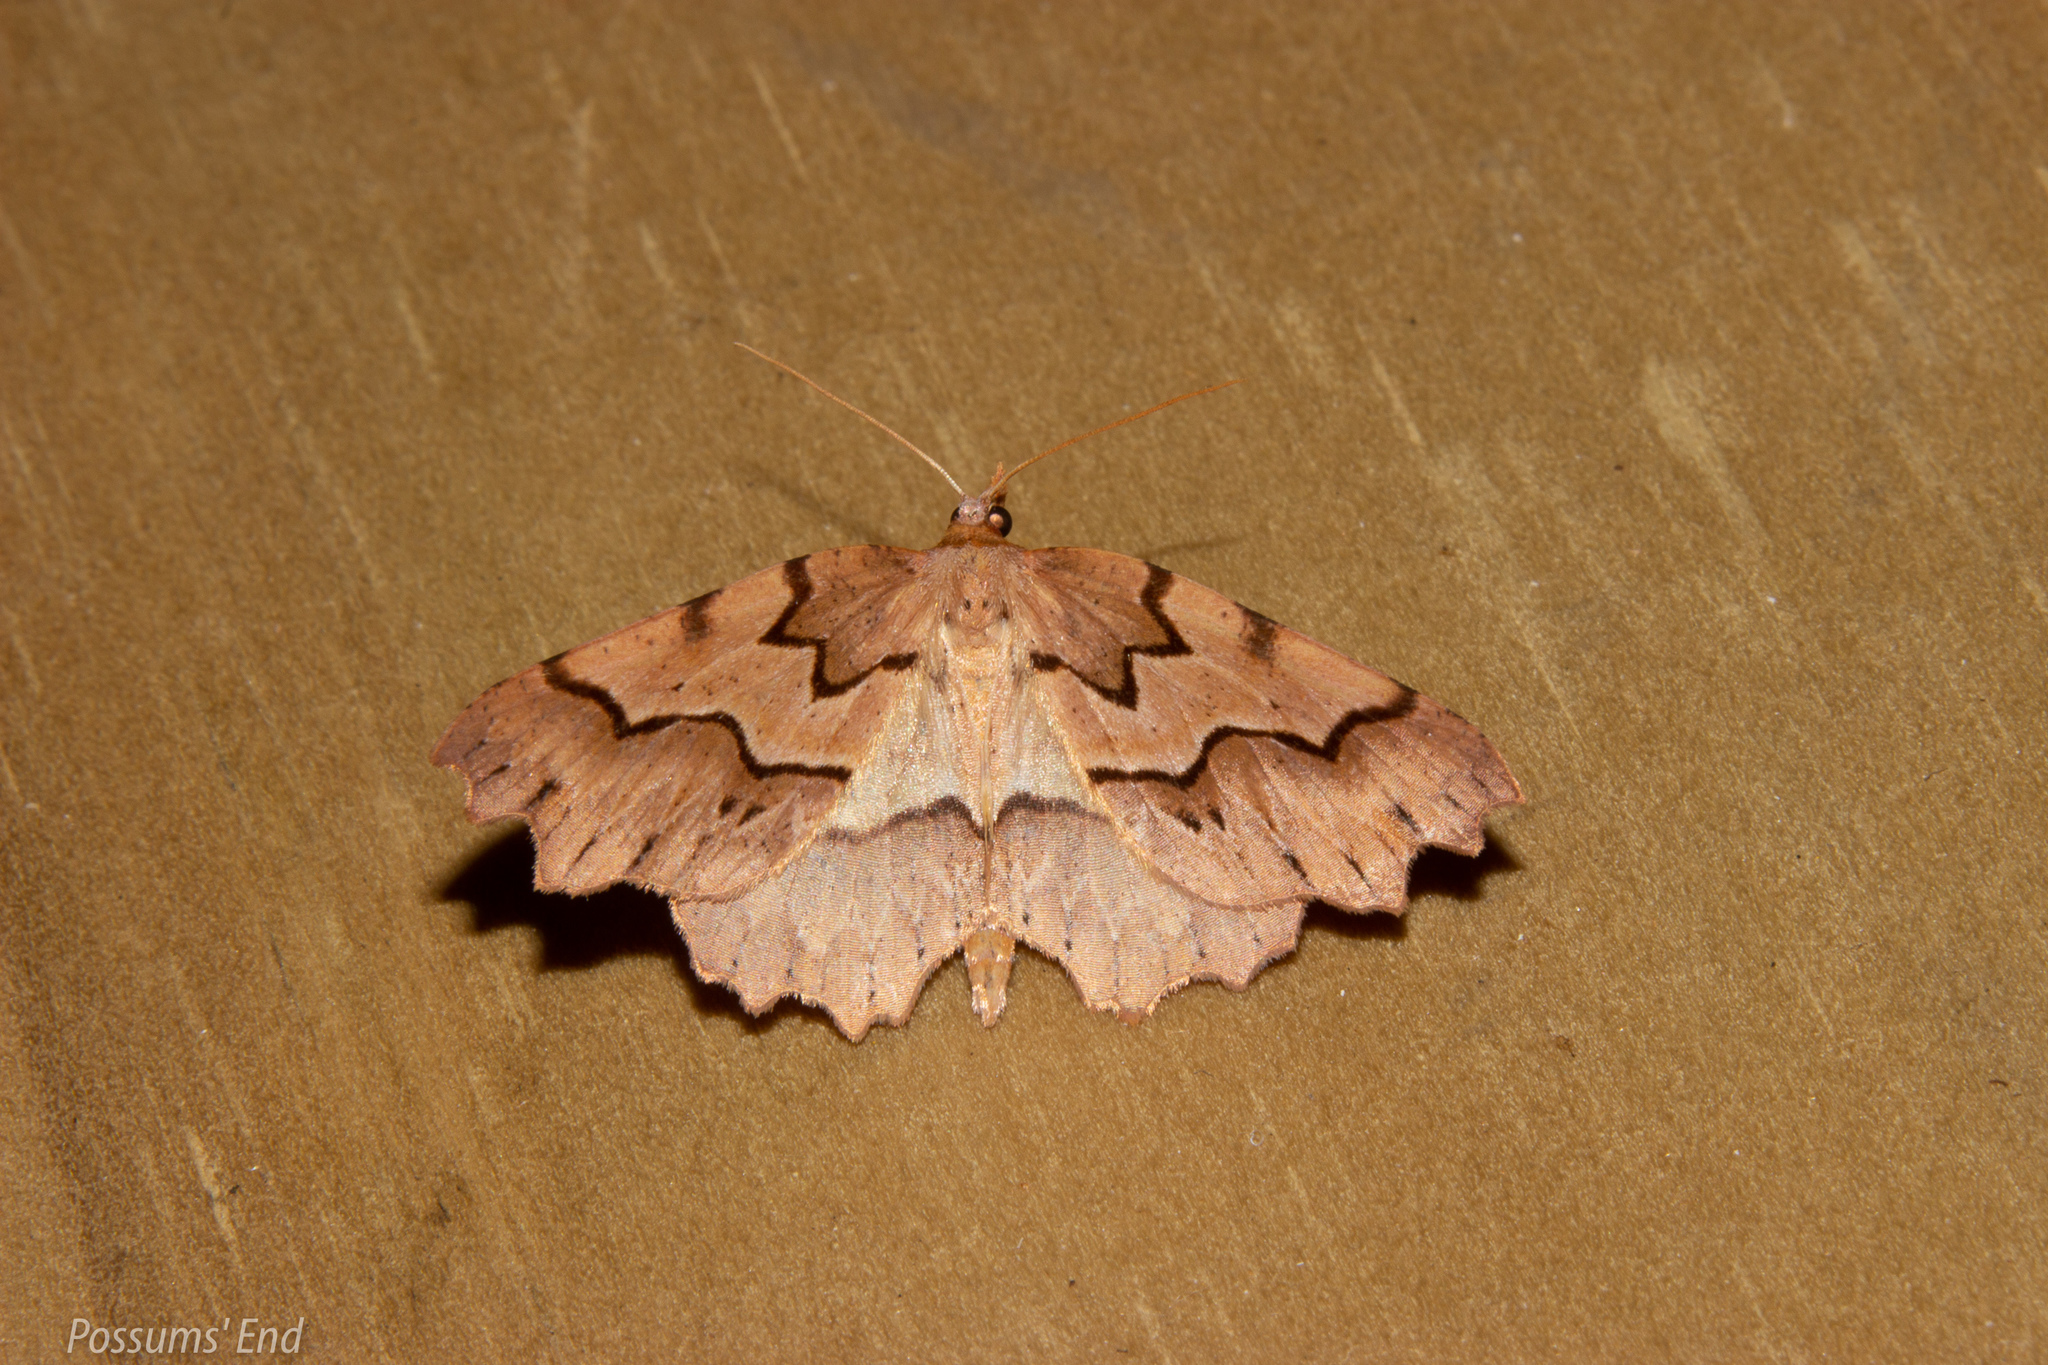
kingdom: Animalia
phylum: Arthropoda
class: Insecta
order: Lepidoptera
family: Geometridae
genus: Ischalis
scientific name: Ischalis fortinata
